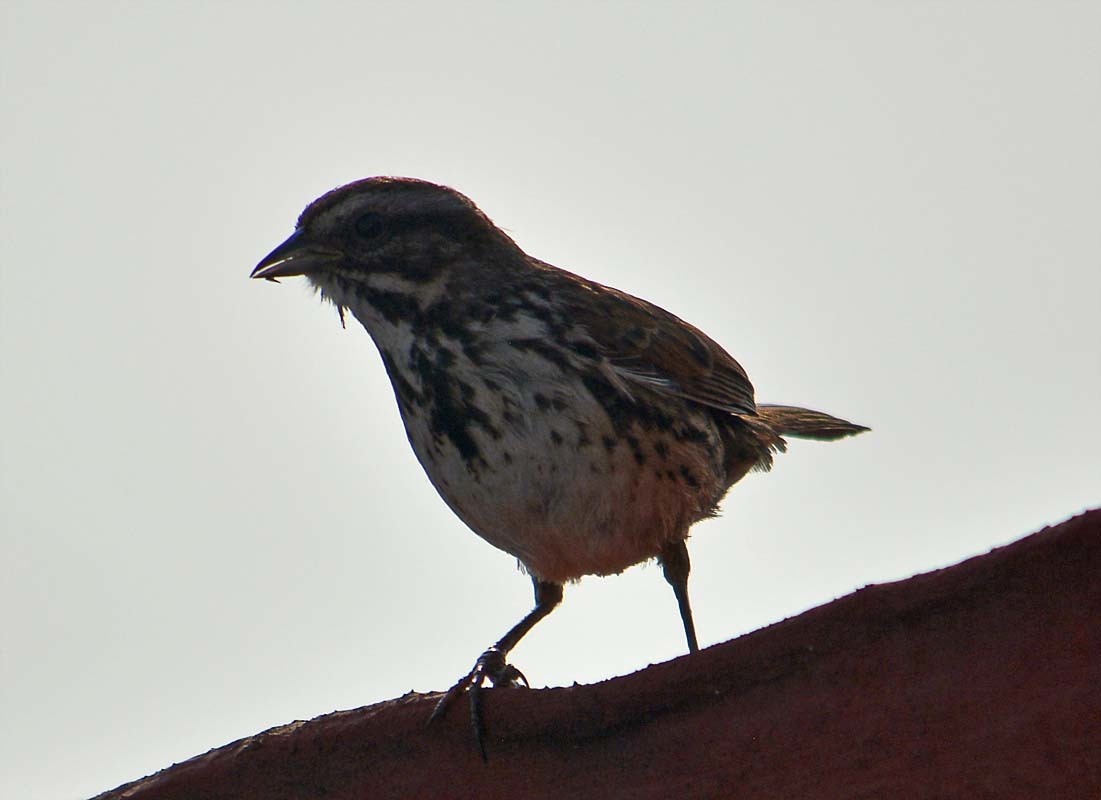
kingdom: Animalia
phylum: Chordata
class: Aves
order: Passeriformes
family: Passerellidae
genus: Melospiza
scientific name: Melospiza melodia
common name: Song sparrow
